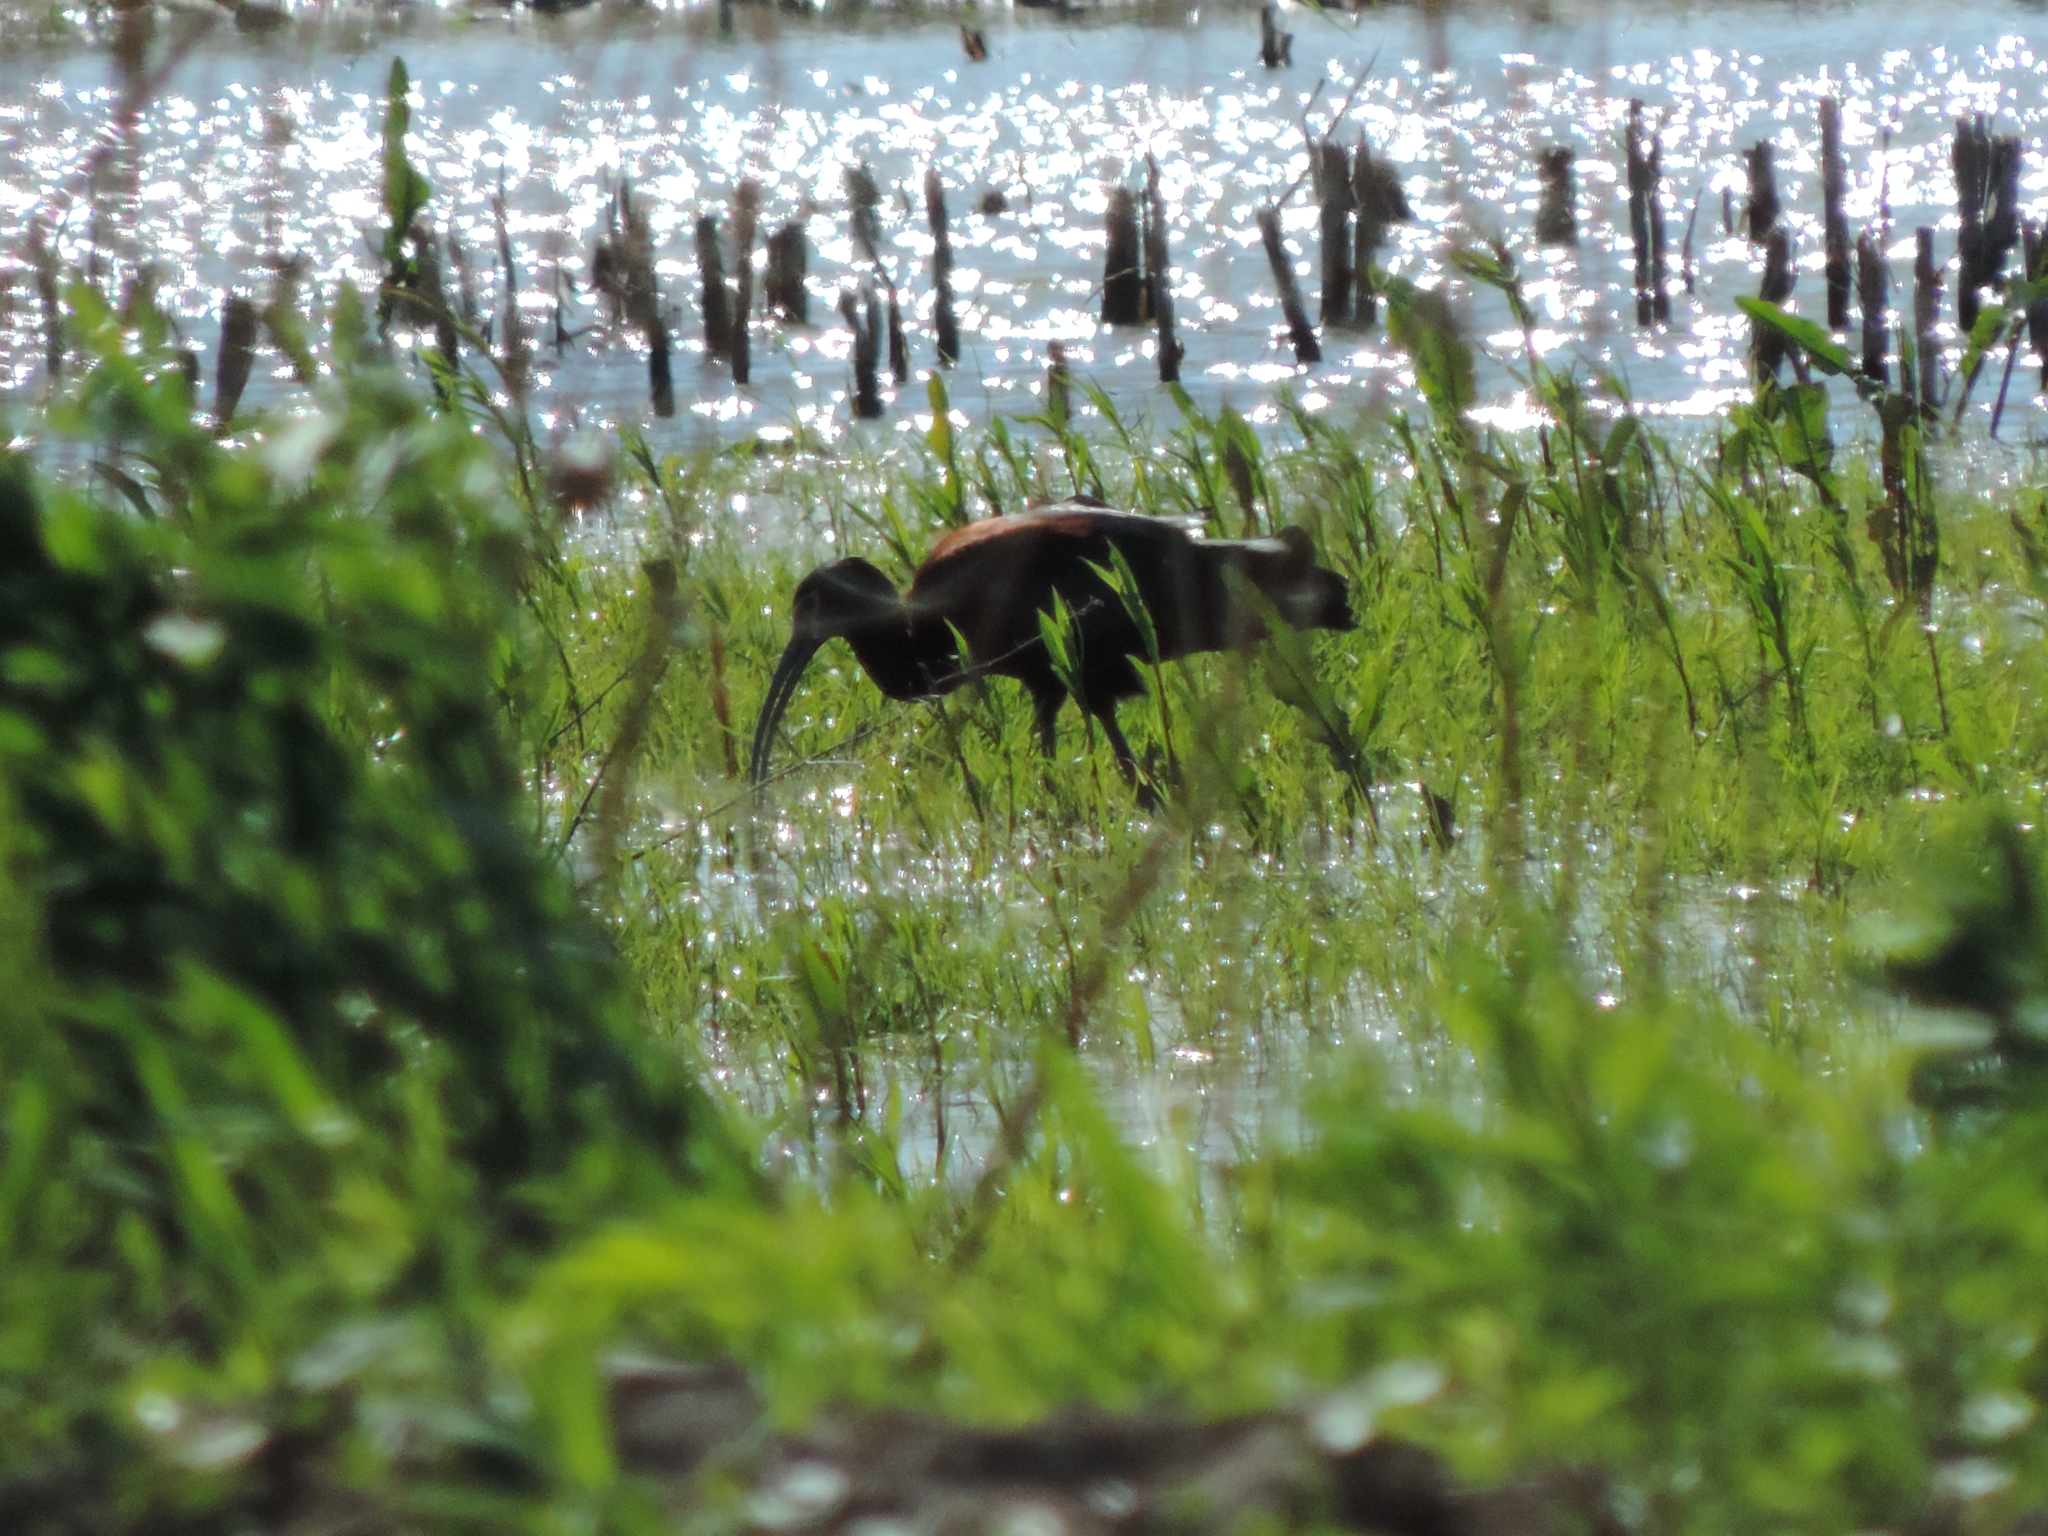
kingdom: Animalia
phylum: Chordata
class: Aves
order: Pelecaniformes
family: Threskiornithidae
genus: Plegadis
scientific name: Plegadis chihi
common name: White-faced ibis
